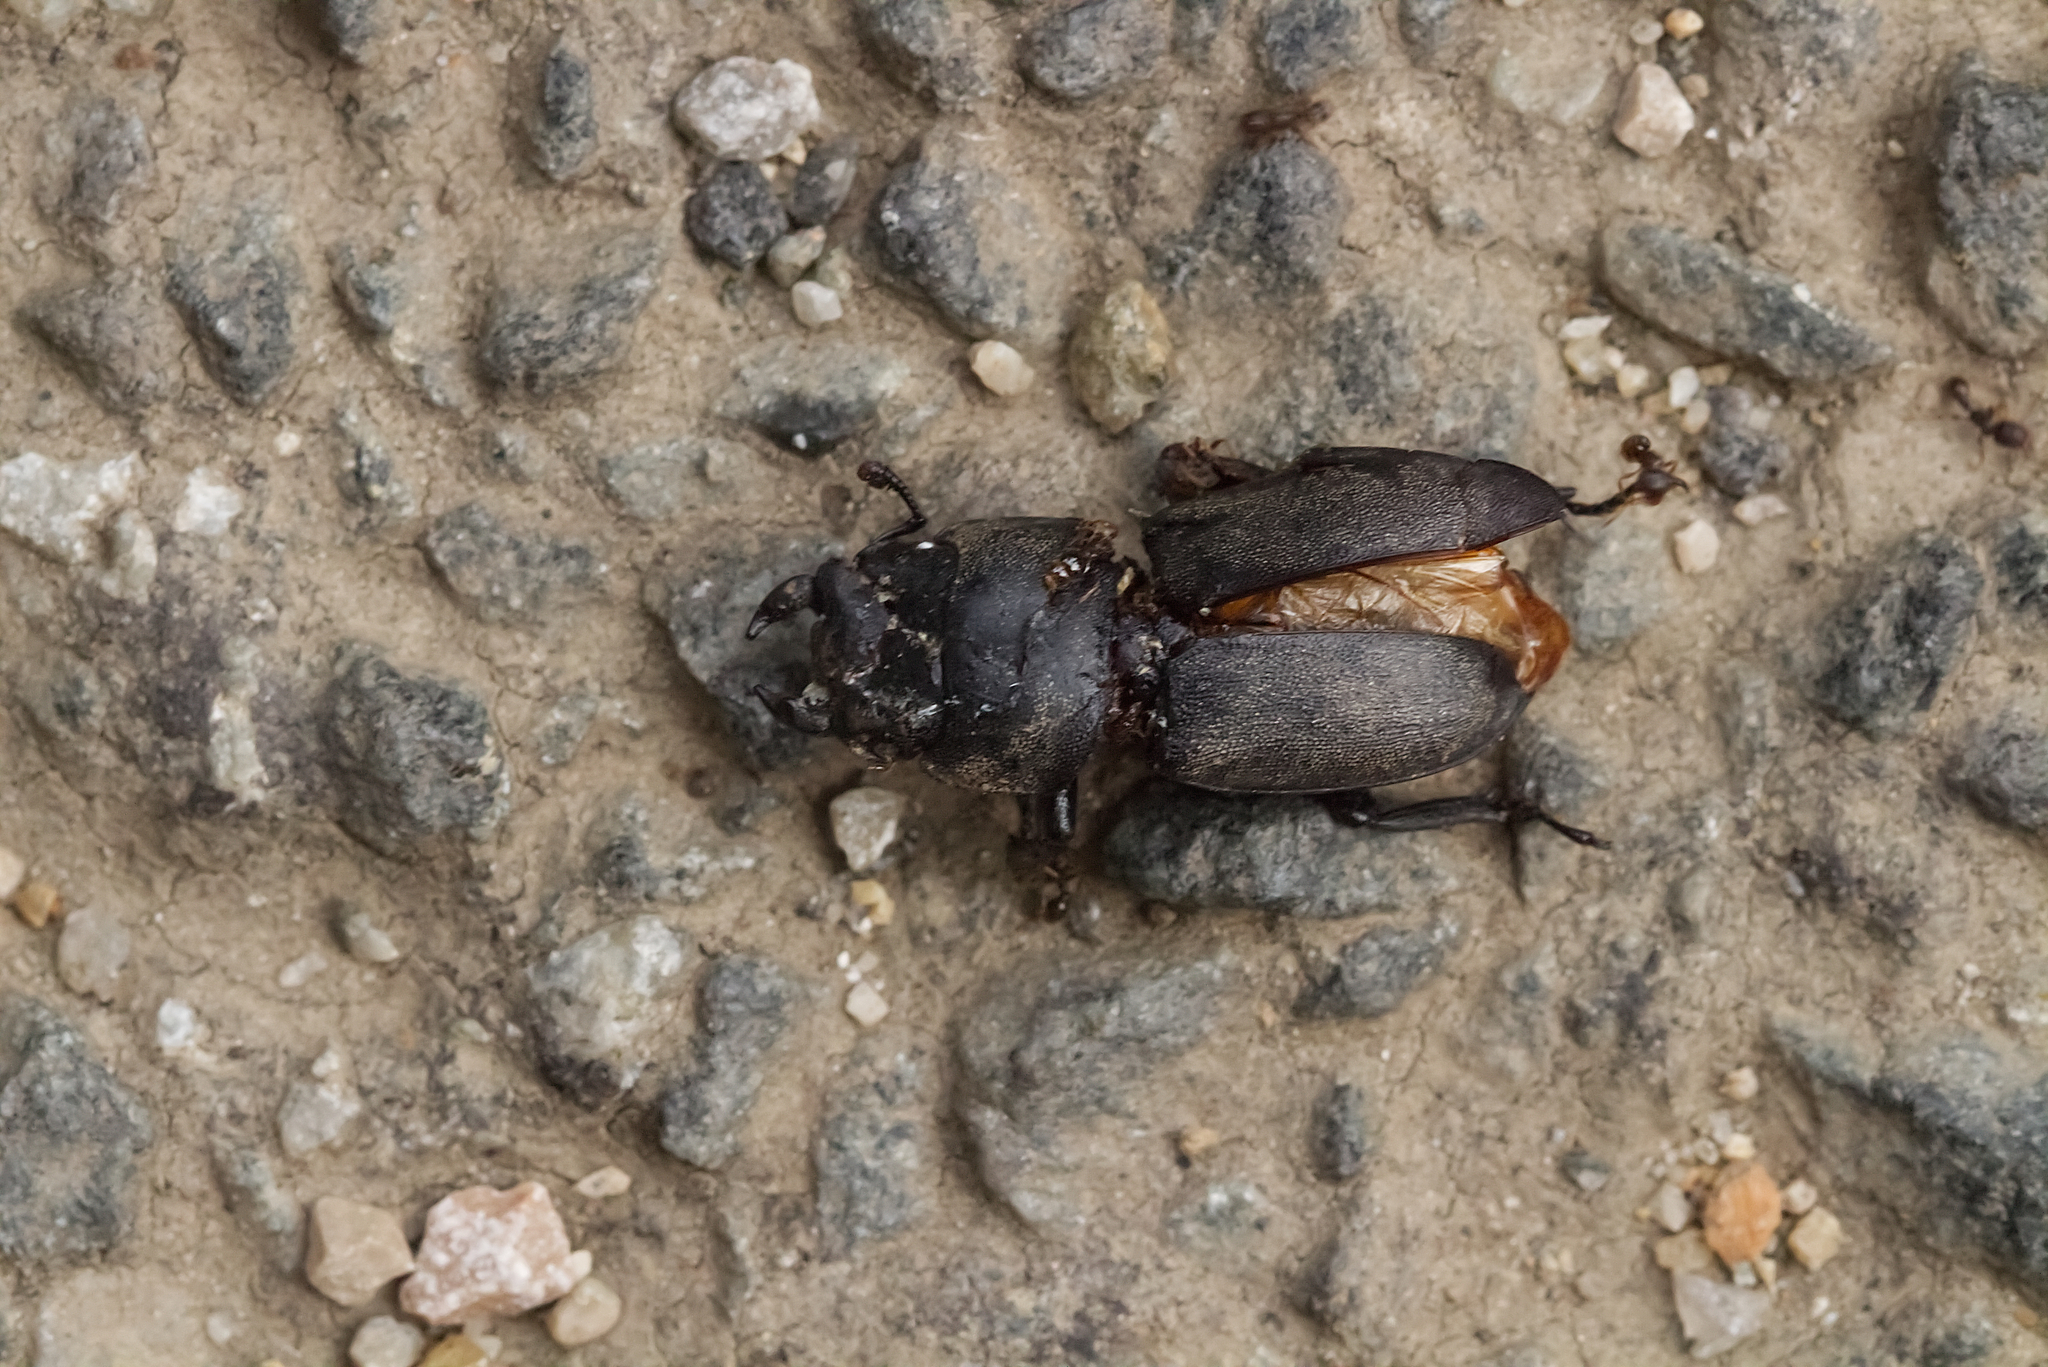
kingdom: Animalia
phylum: Arthropoda
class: Insecta
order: Coleoptera
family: Lucanidae
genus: Dorcus
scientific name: Dorcus parallelipipedus
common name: Lesser stag beetle
